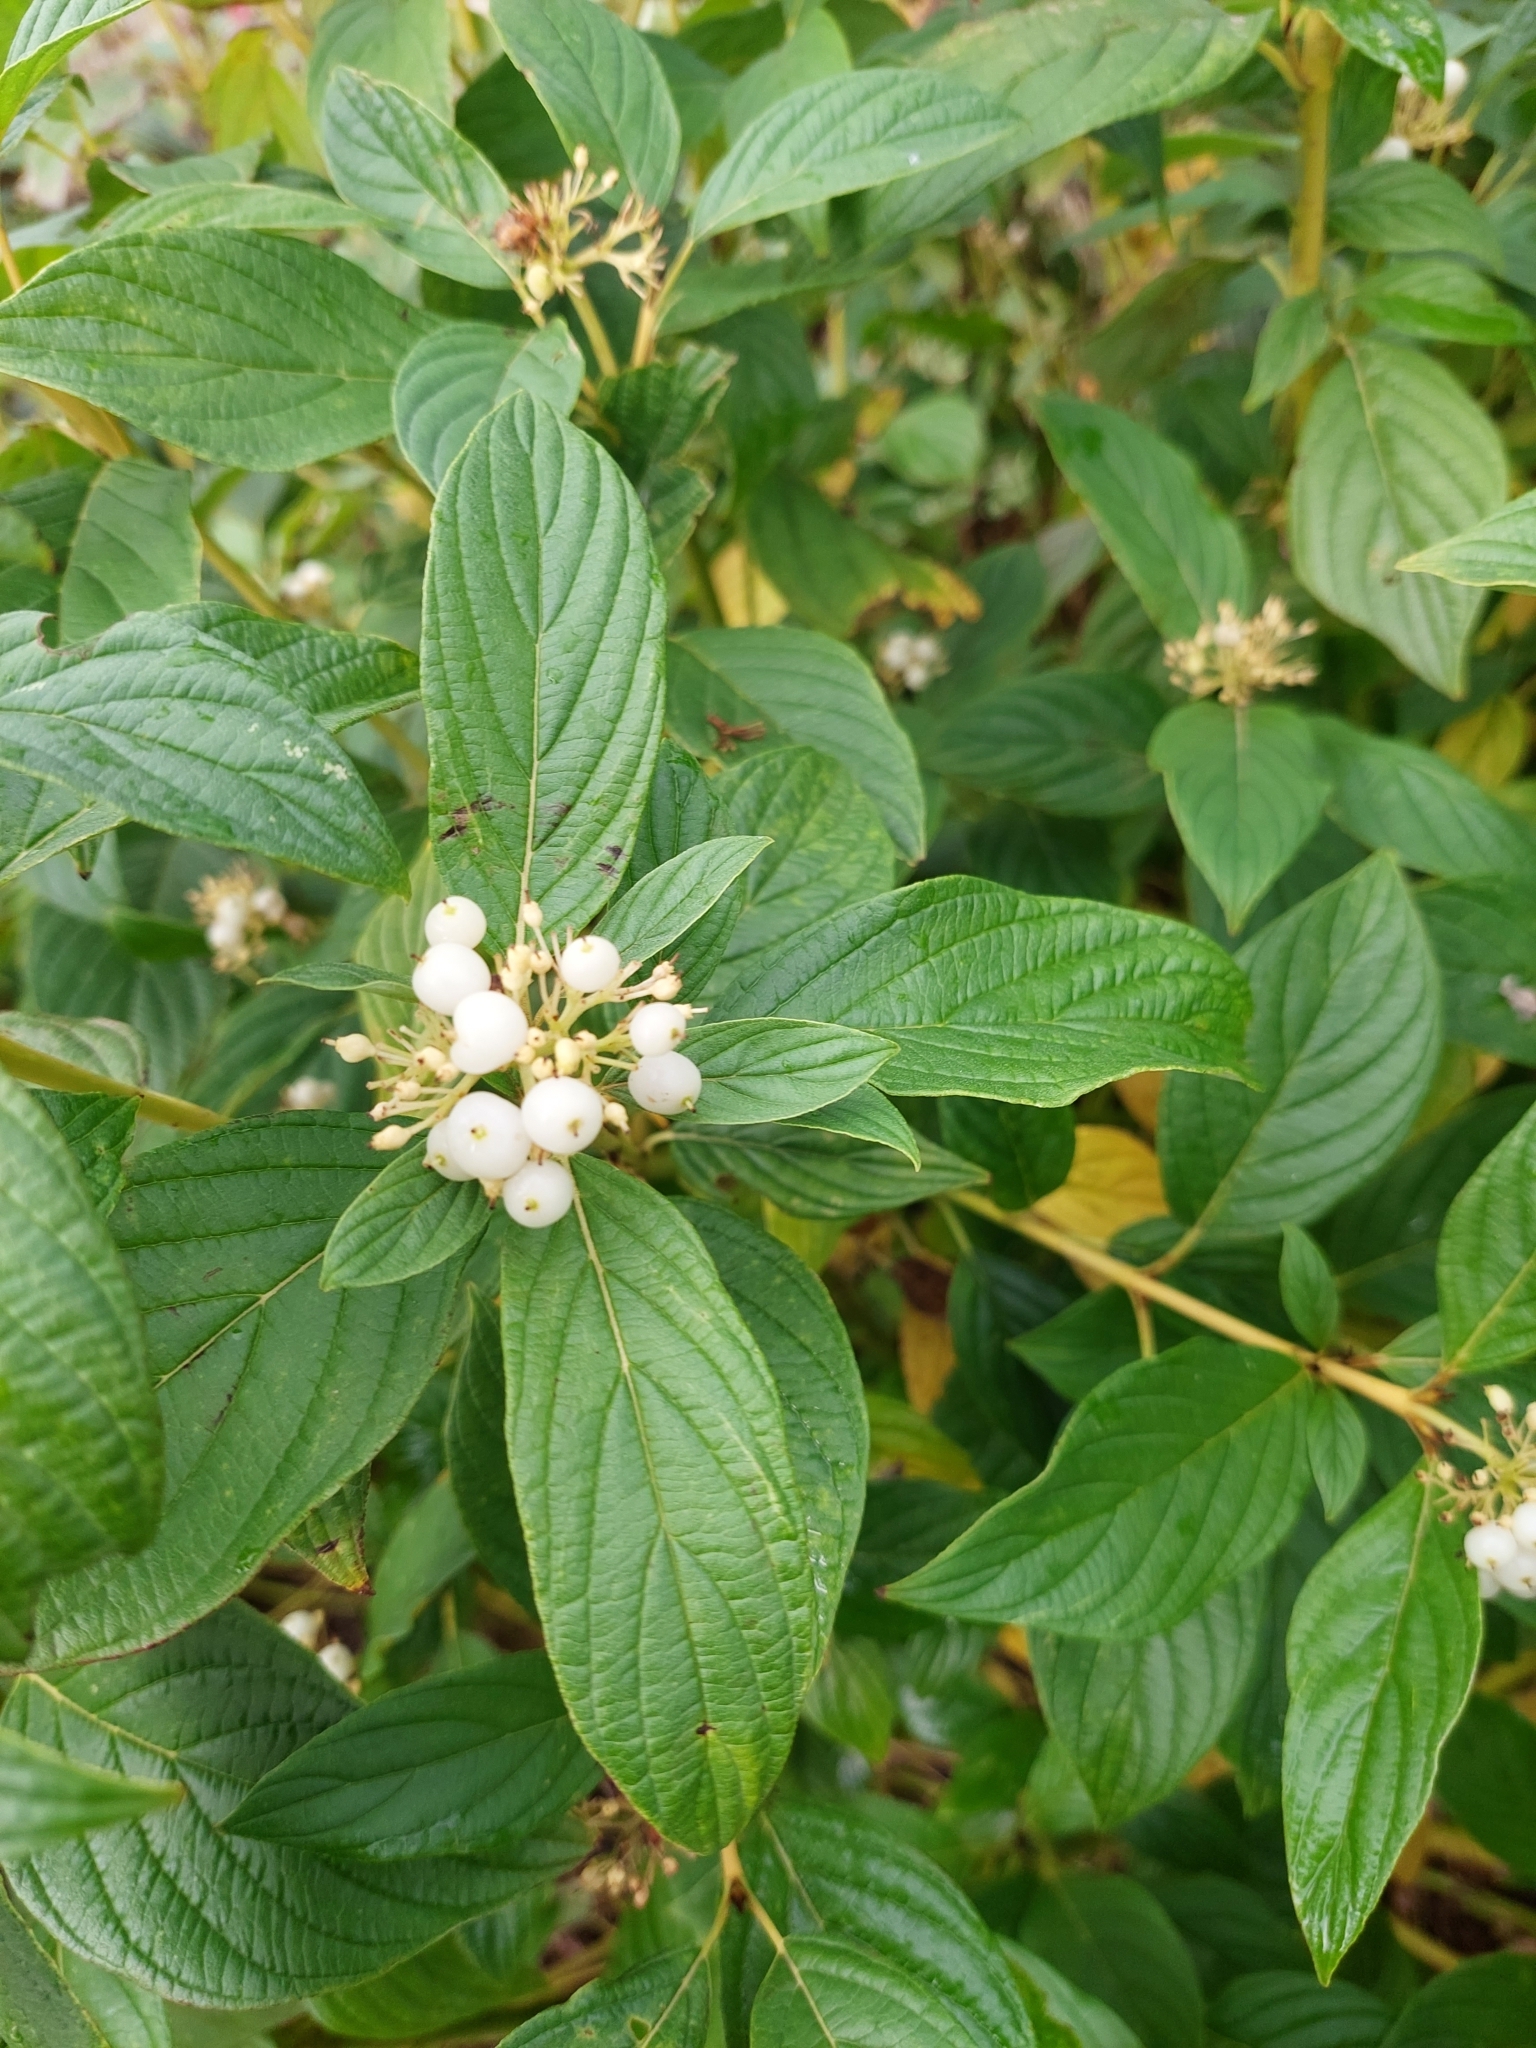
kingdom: Plantae
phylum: Tracheophyta
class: Magnoliopsida
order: Cornales
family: Cornaceae
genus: Cornus
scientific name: Cornus alba
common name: White dogwood
